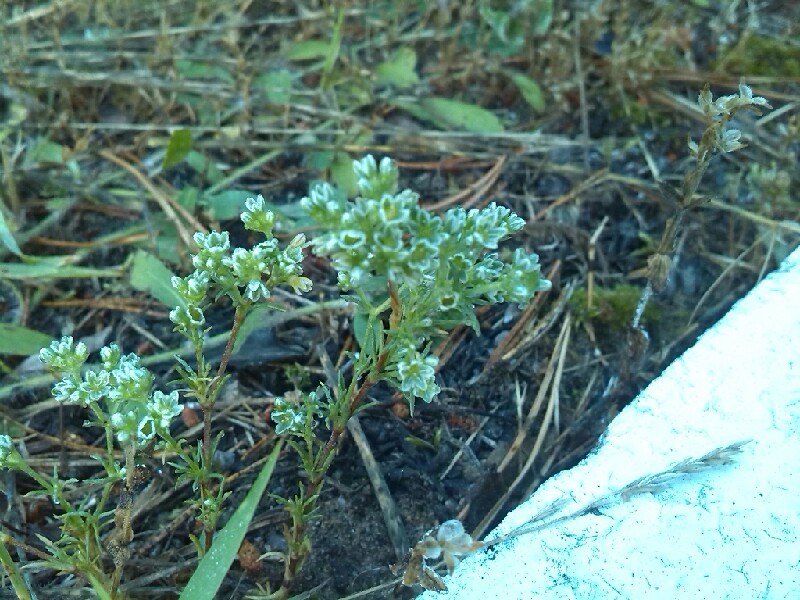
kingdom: Plantae
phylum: Tracheophyta
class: Magnoliopsida
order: Caryophyllales
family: Caryophyllaceae
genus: Scleranthus
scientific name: Scleranthus perennis
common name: Perennial knawel
